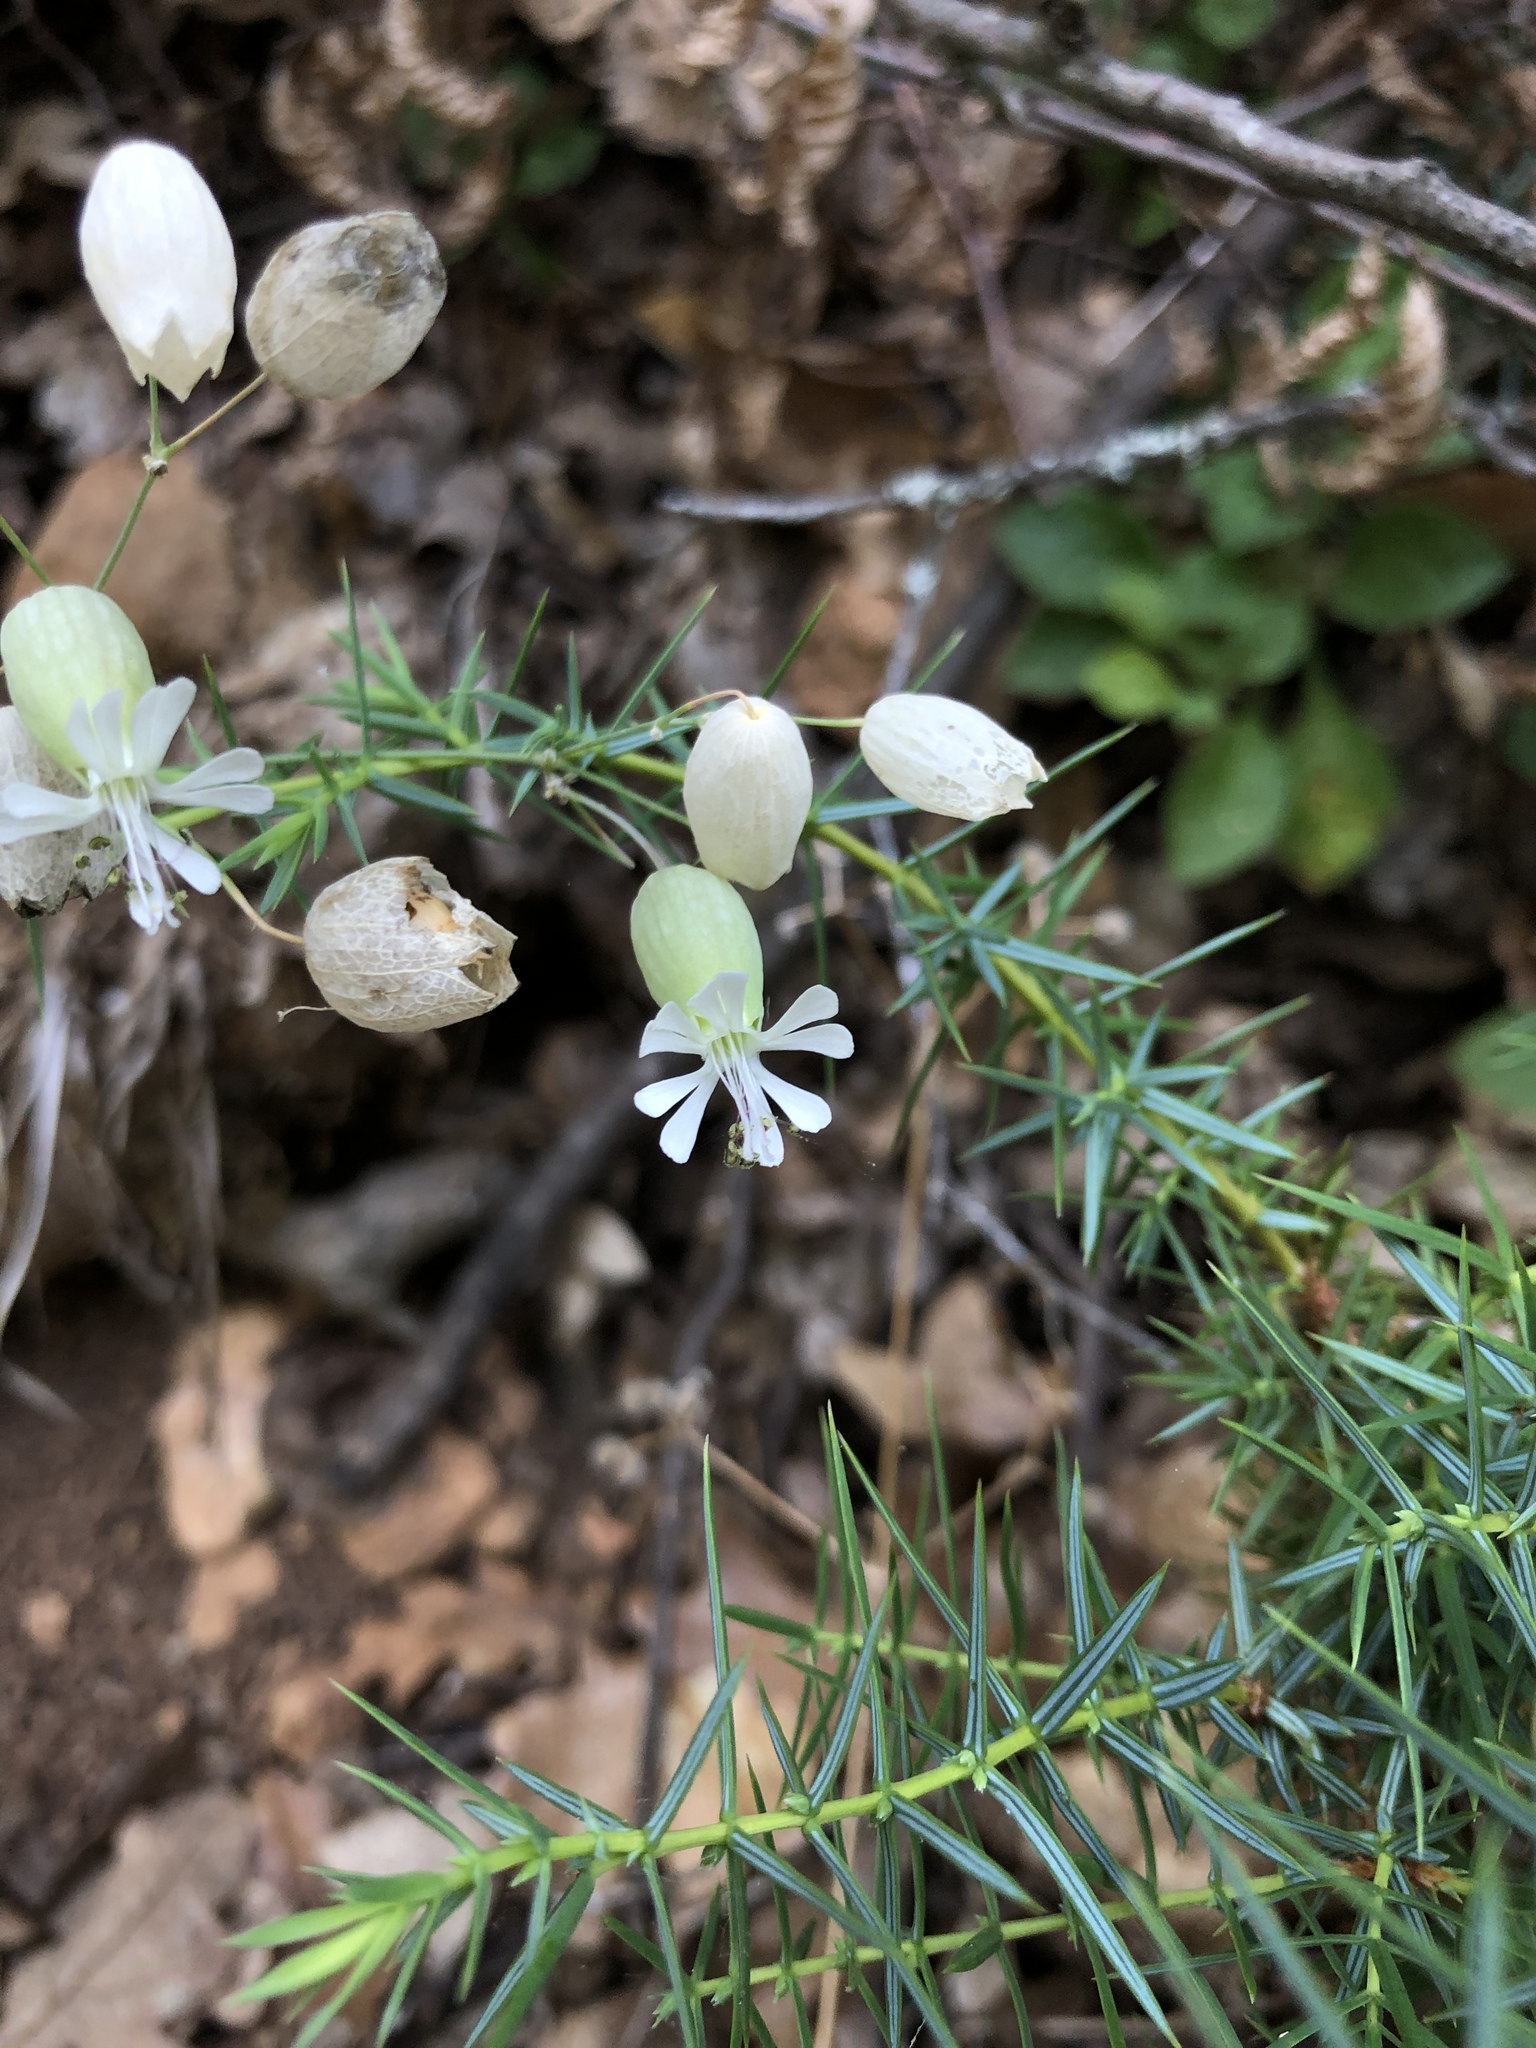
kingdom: Plantae
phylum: Tracheophyta
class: Magnoliopsida
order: Caryophyllales
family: Caryophyllaceae
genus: Silene
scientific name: Silene vulgaris
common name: Bladder campion
